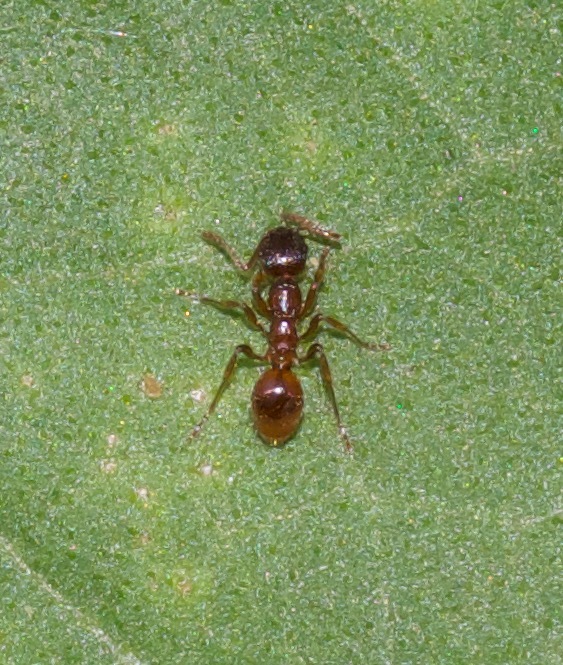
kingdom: Animalia
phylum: Arthropoda
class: Insecta
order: Hymenoptera
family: Formicidae
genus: Myrmica
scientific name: Myrmica rubra
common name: European fire ant
